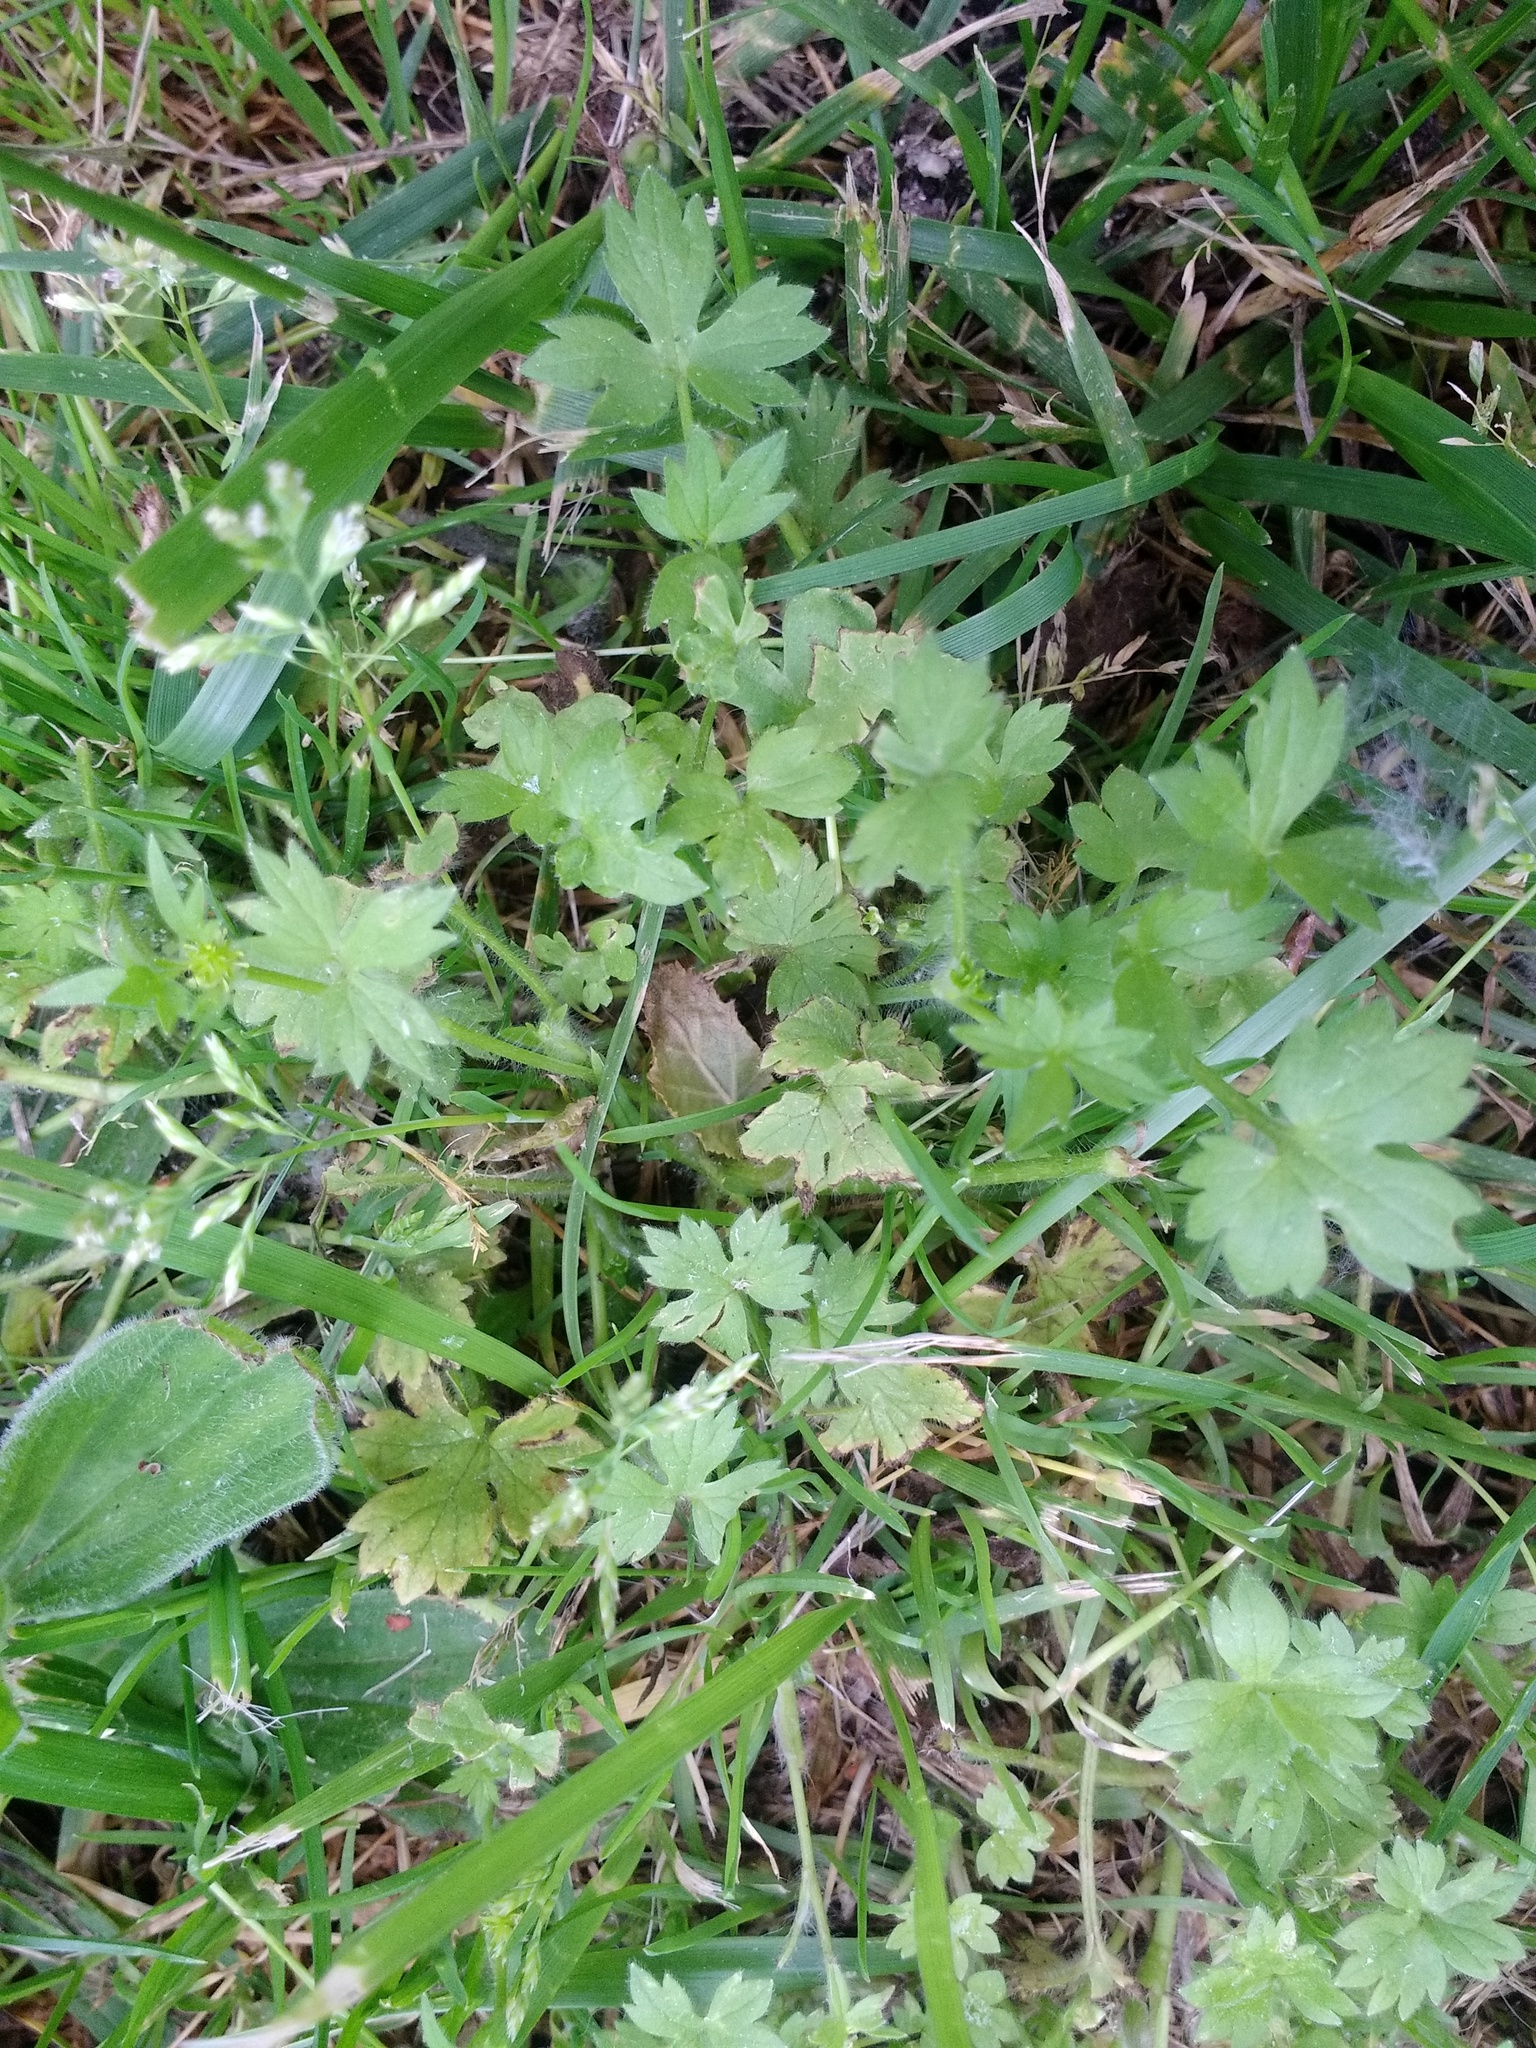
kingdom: Plantae
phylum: Tracheophyta
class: Magnoliopsida
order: Ranunculales
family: Ranunculaceae
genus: Ranunculus
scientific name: Ranunculus repens
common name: Creeping buttercup
